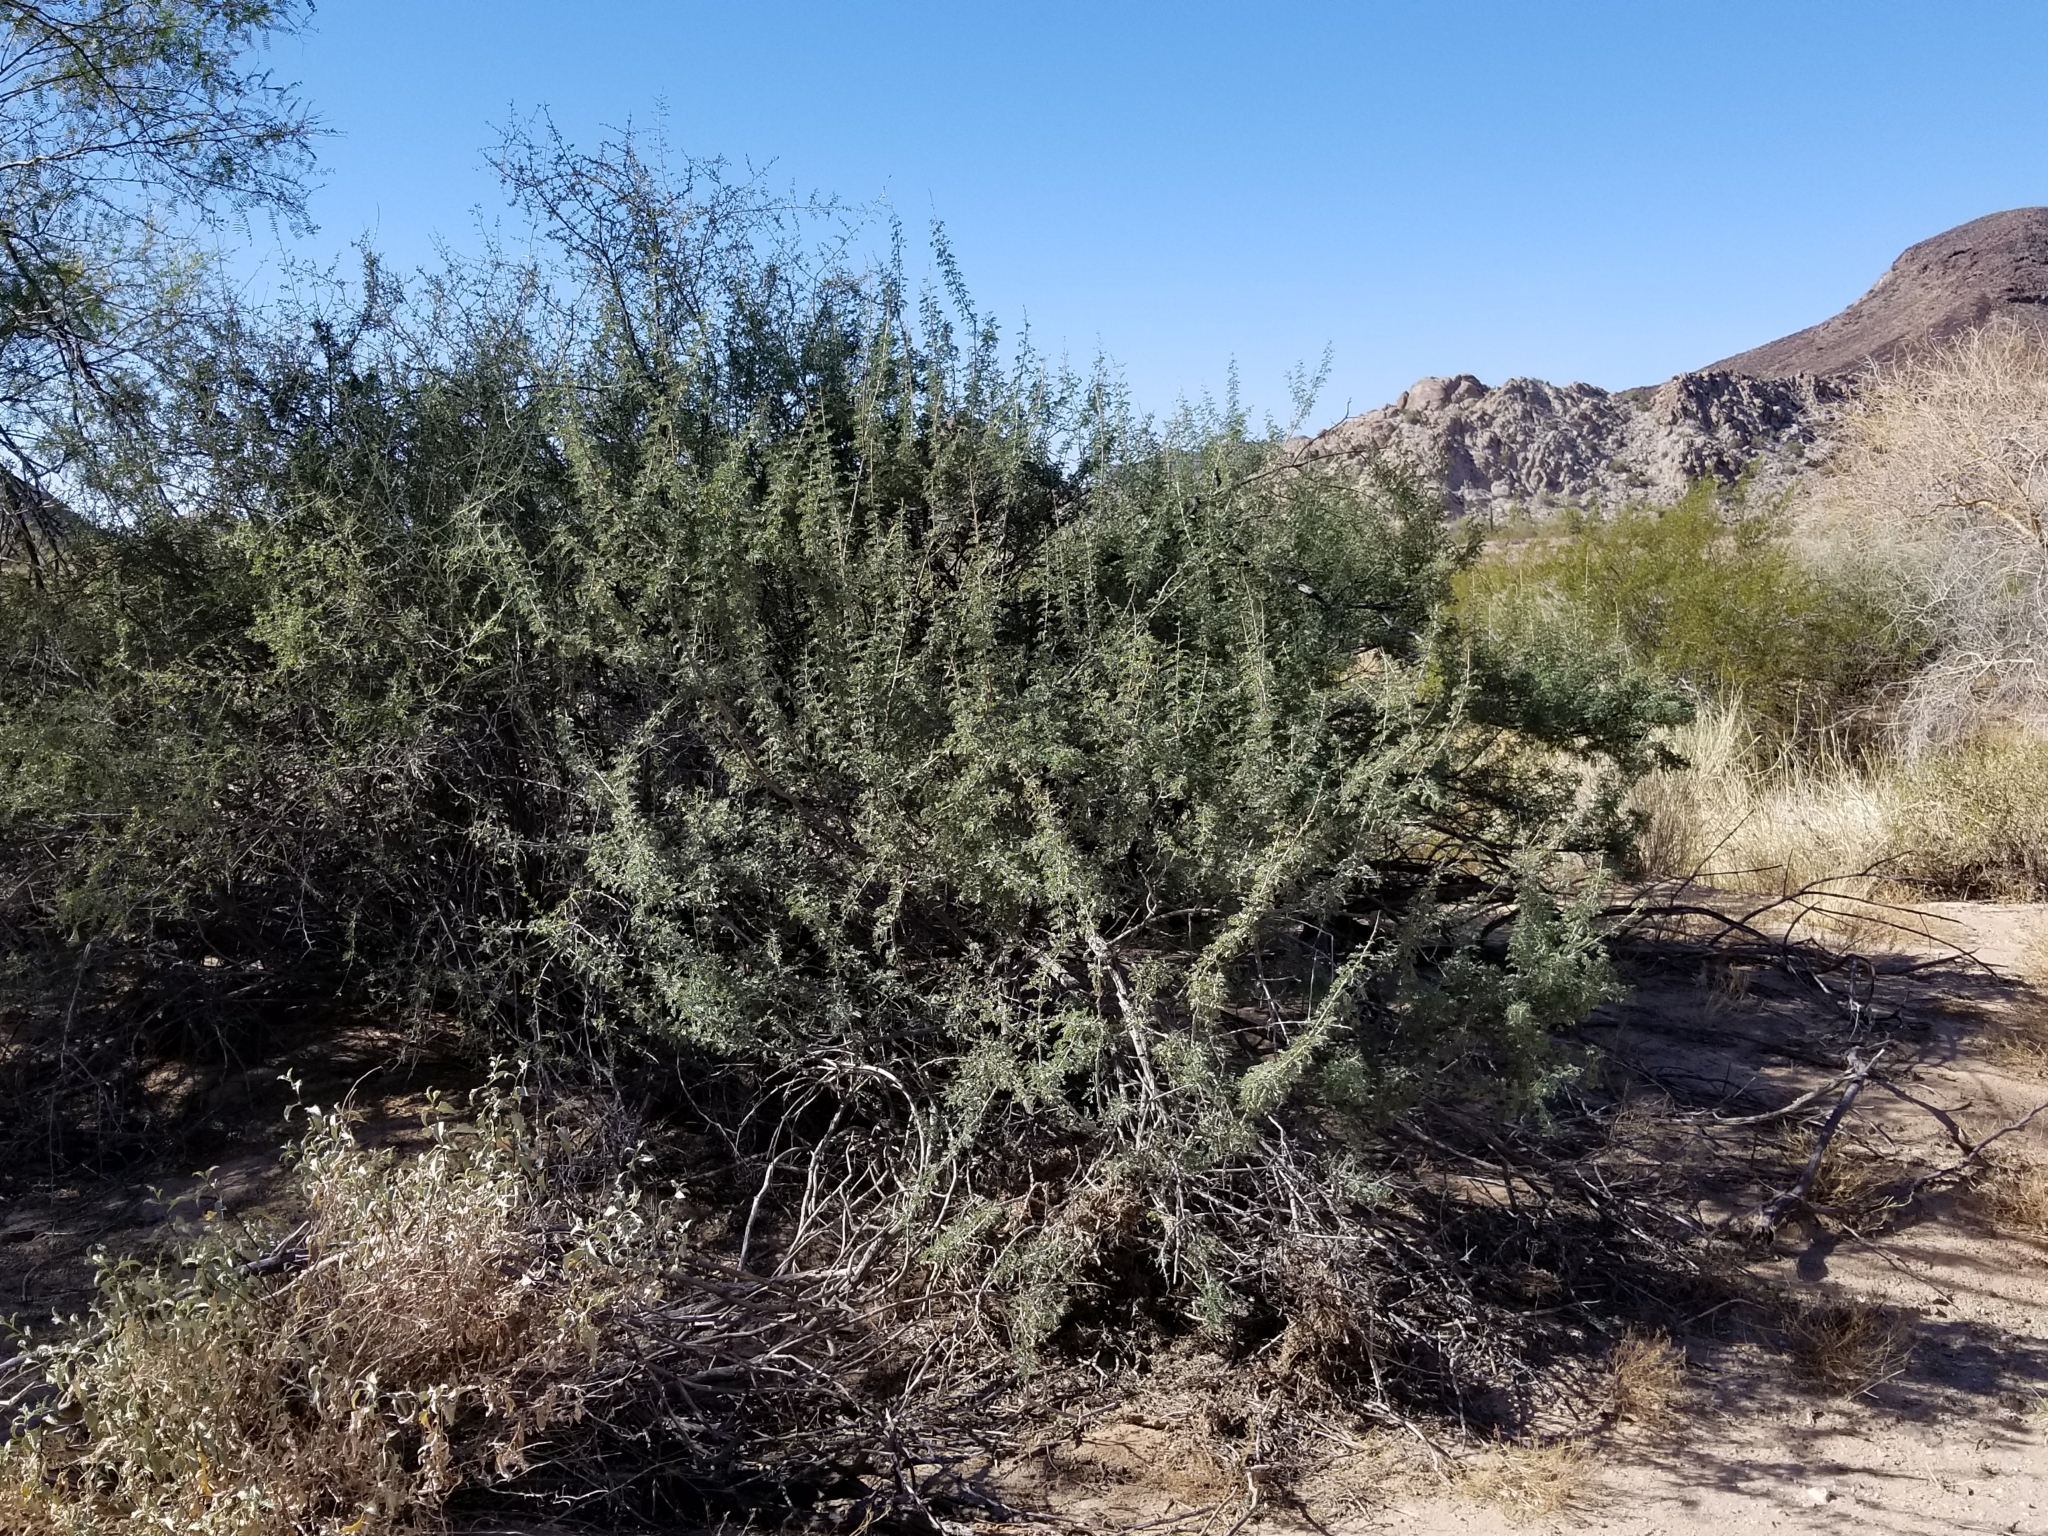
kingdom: Plantae
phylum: Tracheophyta
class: Magnoliopsida
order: Fabales
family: Fabaceae
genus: Senegalia
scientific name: Senegalia greggii
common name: Texas-mimosa
